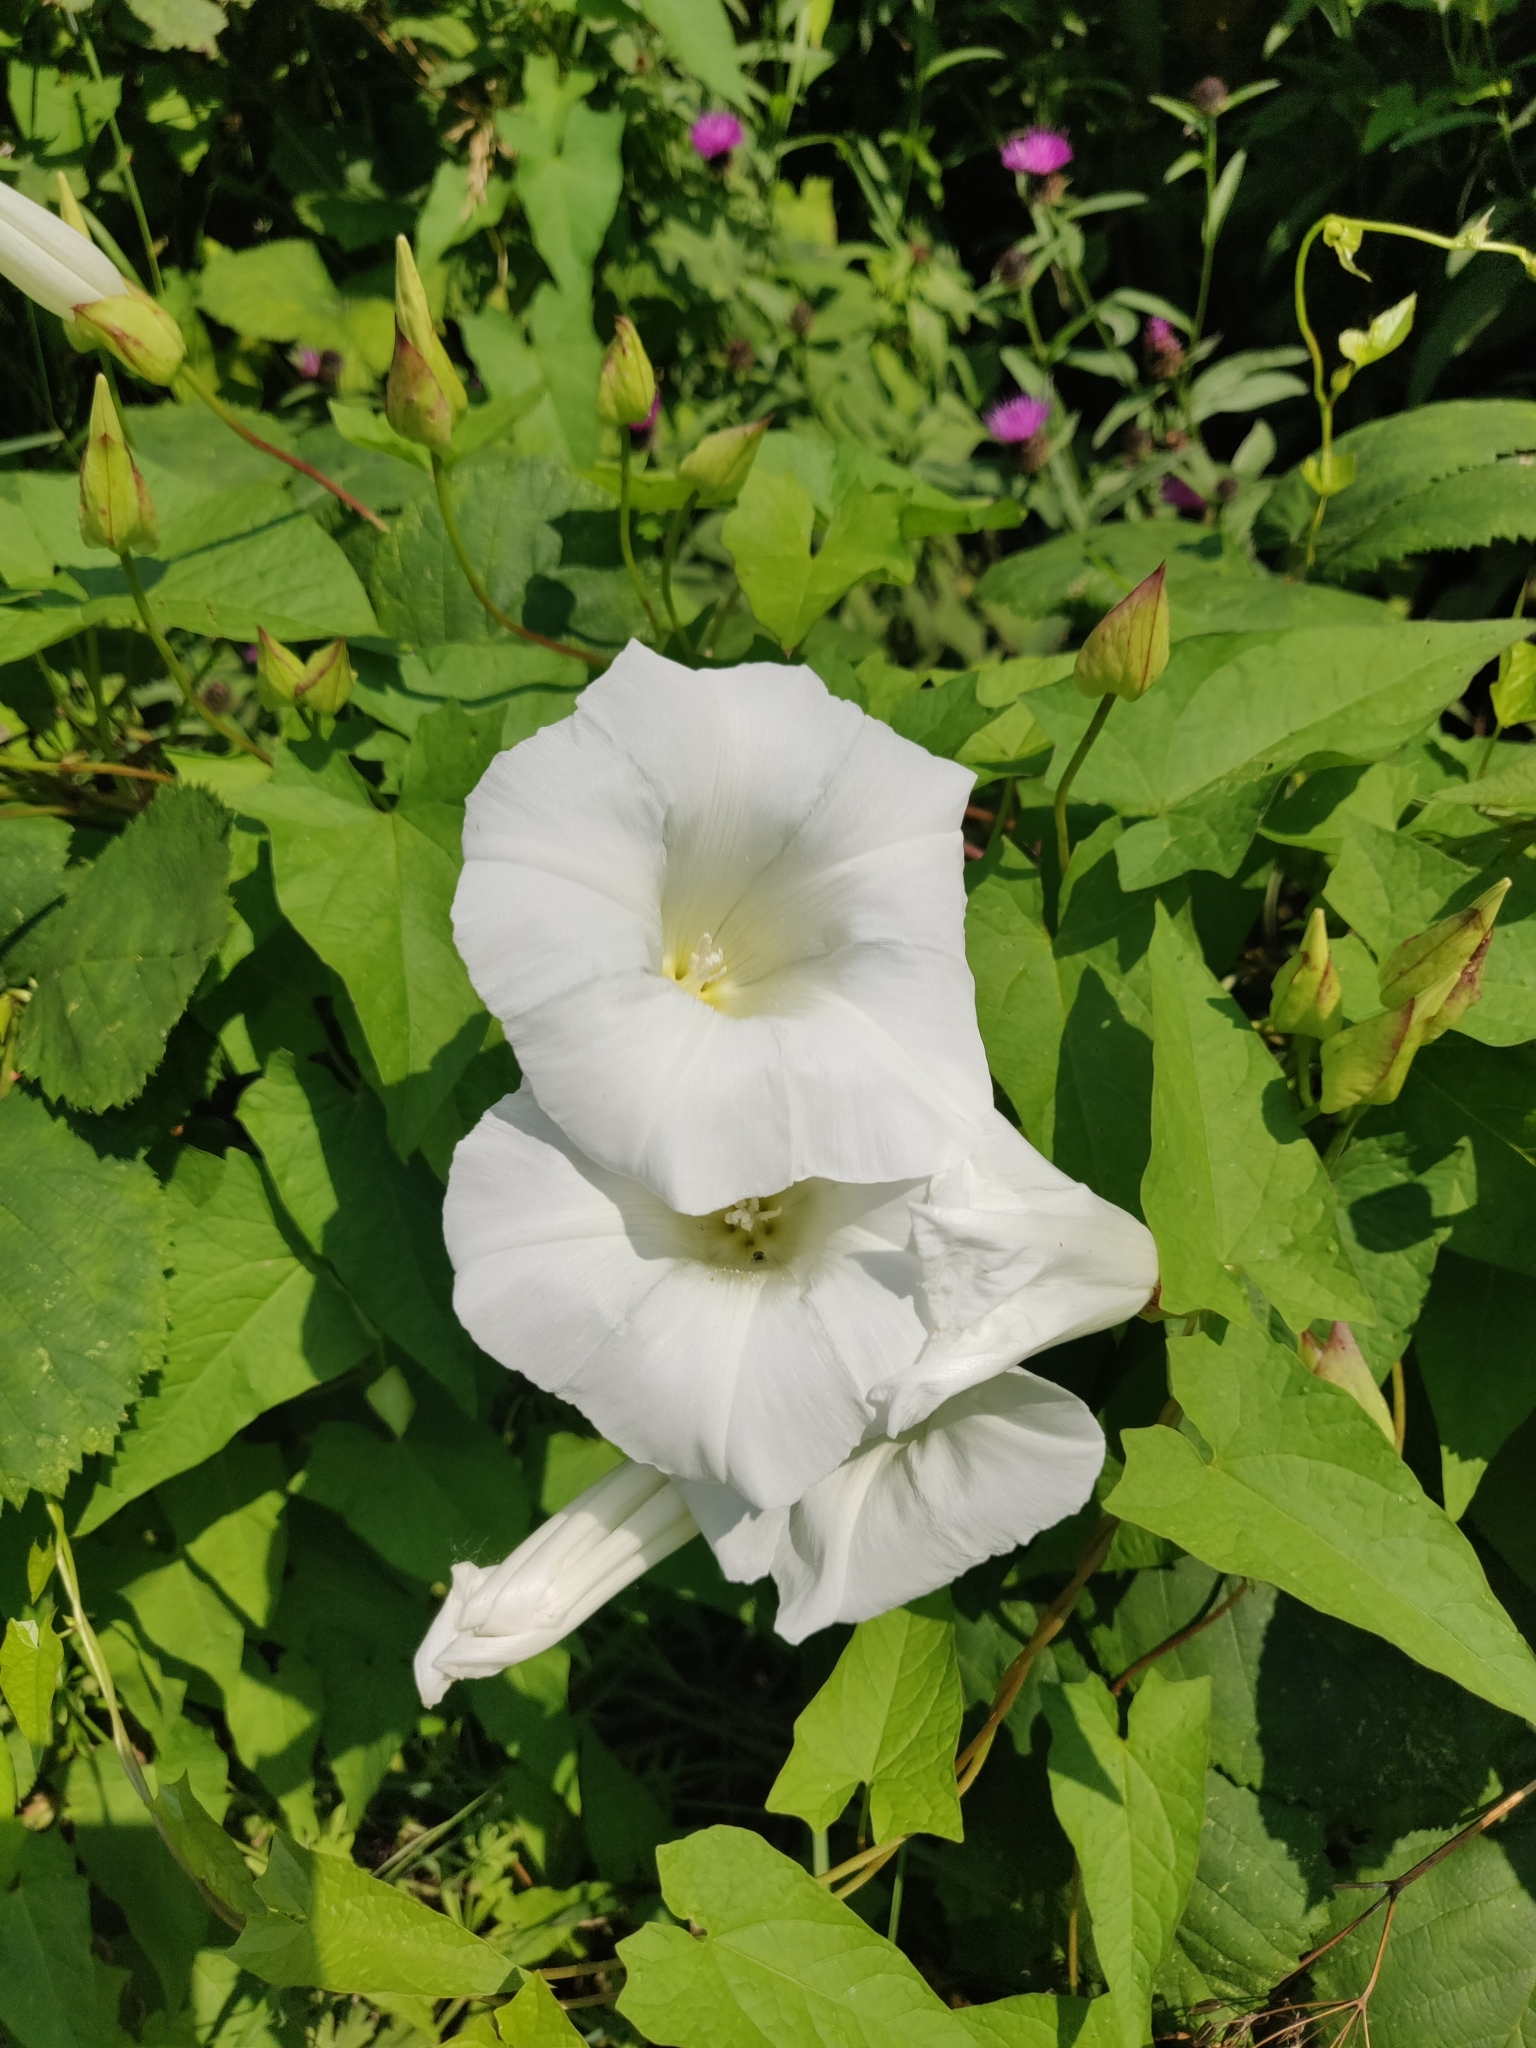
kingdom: Plantae
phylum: Tracheophyta
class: Magnoliopsida
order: Solanales
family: Convolvulaceae
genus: Calystegia
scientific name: Calystegia silvatica
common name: Large bindweed
